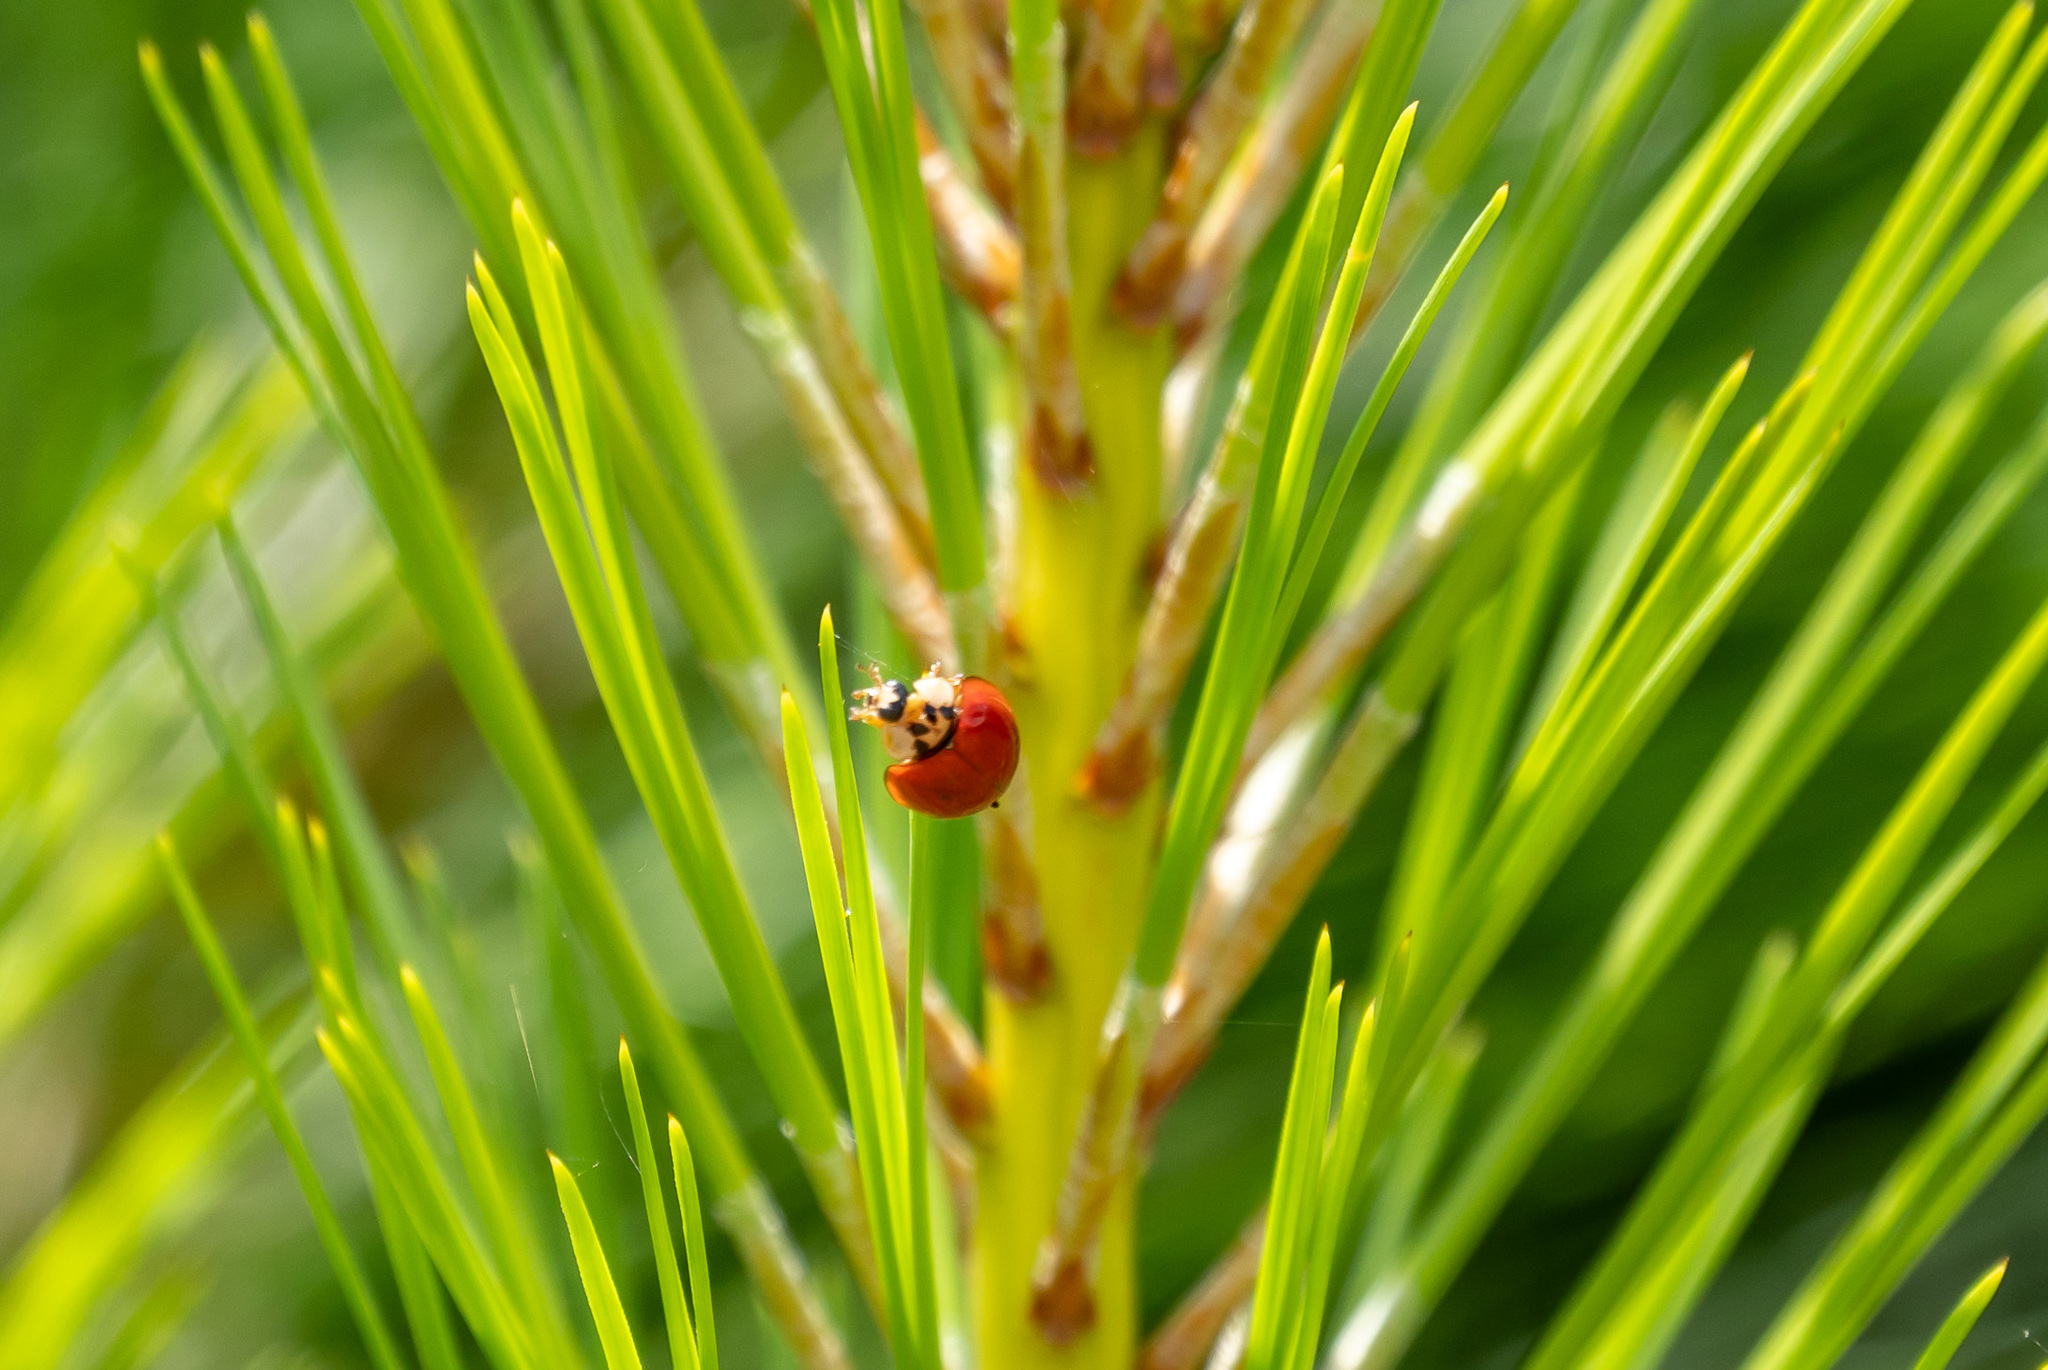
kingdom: Animalia
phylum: Arthropoda
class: Insecta
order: Coleoptera
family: Coccinellidae
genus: Harmonia
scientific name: Harmonia axyridis
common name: Harlequin ladybird
